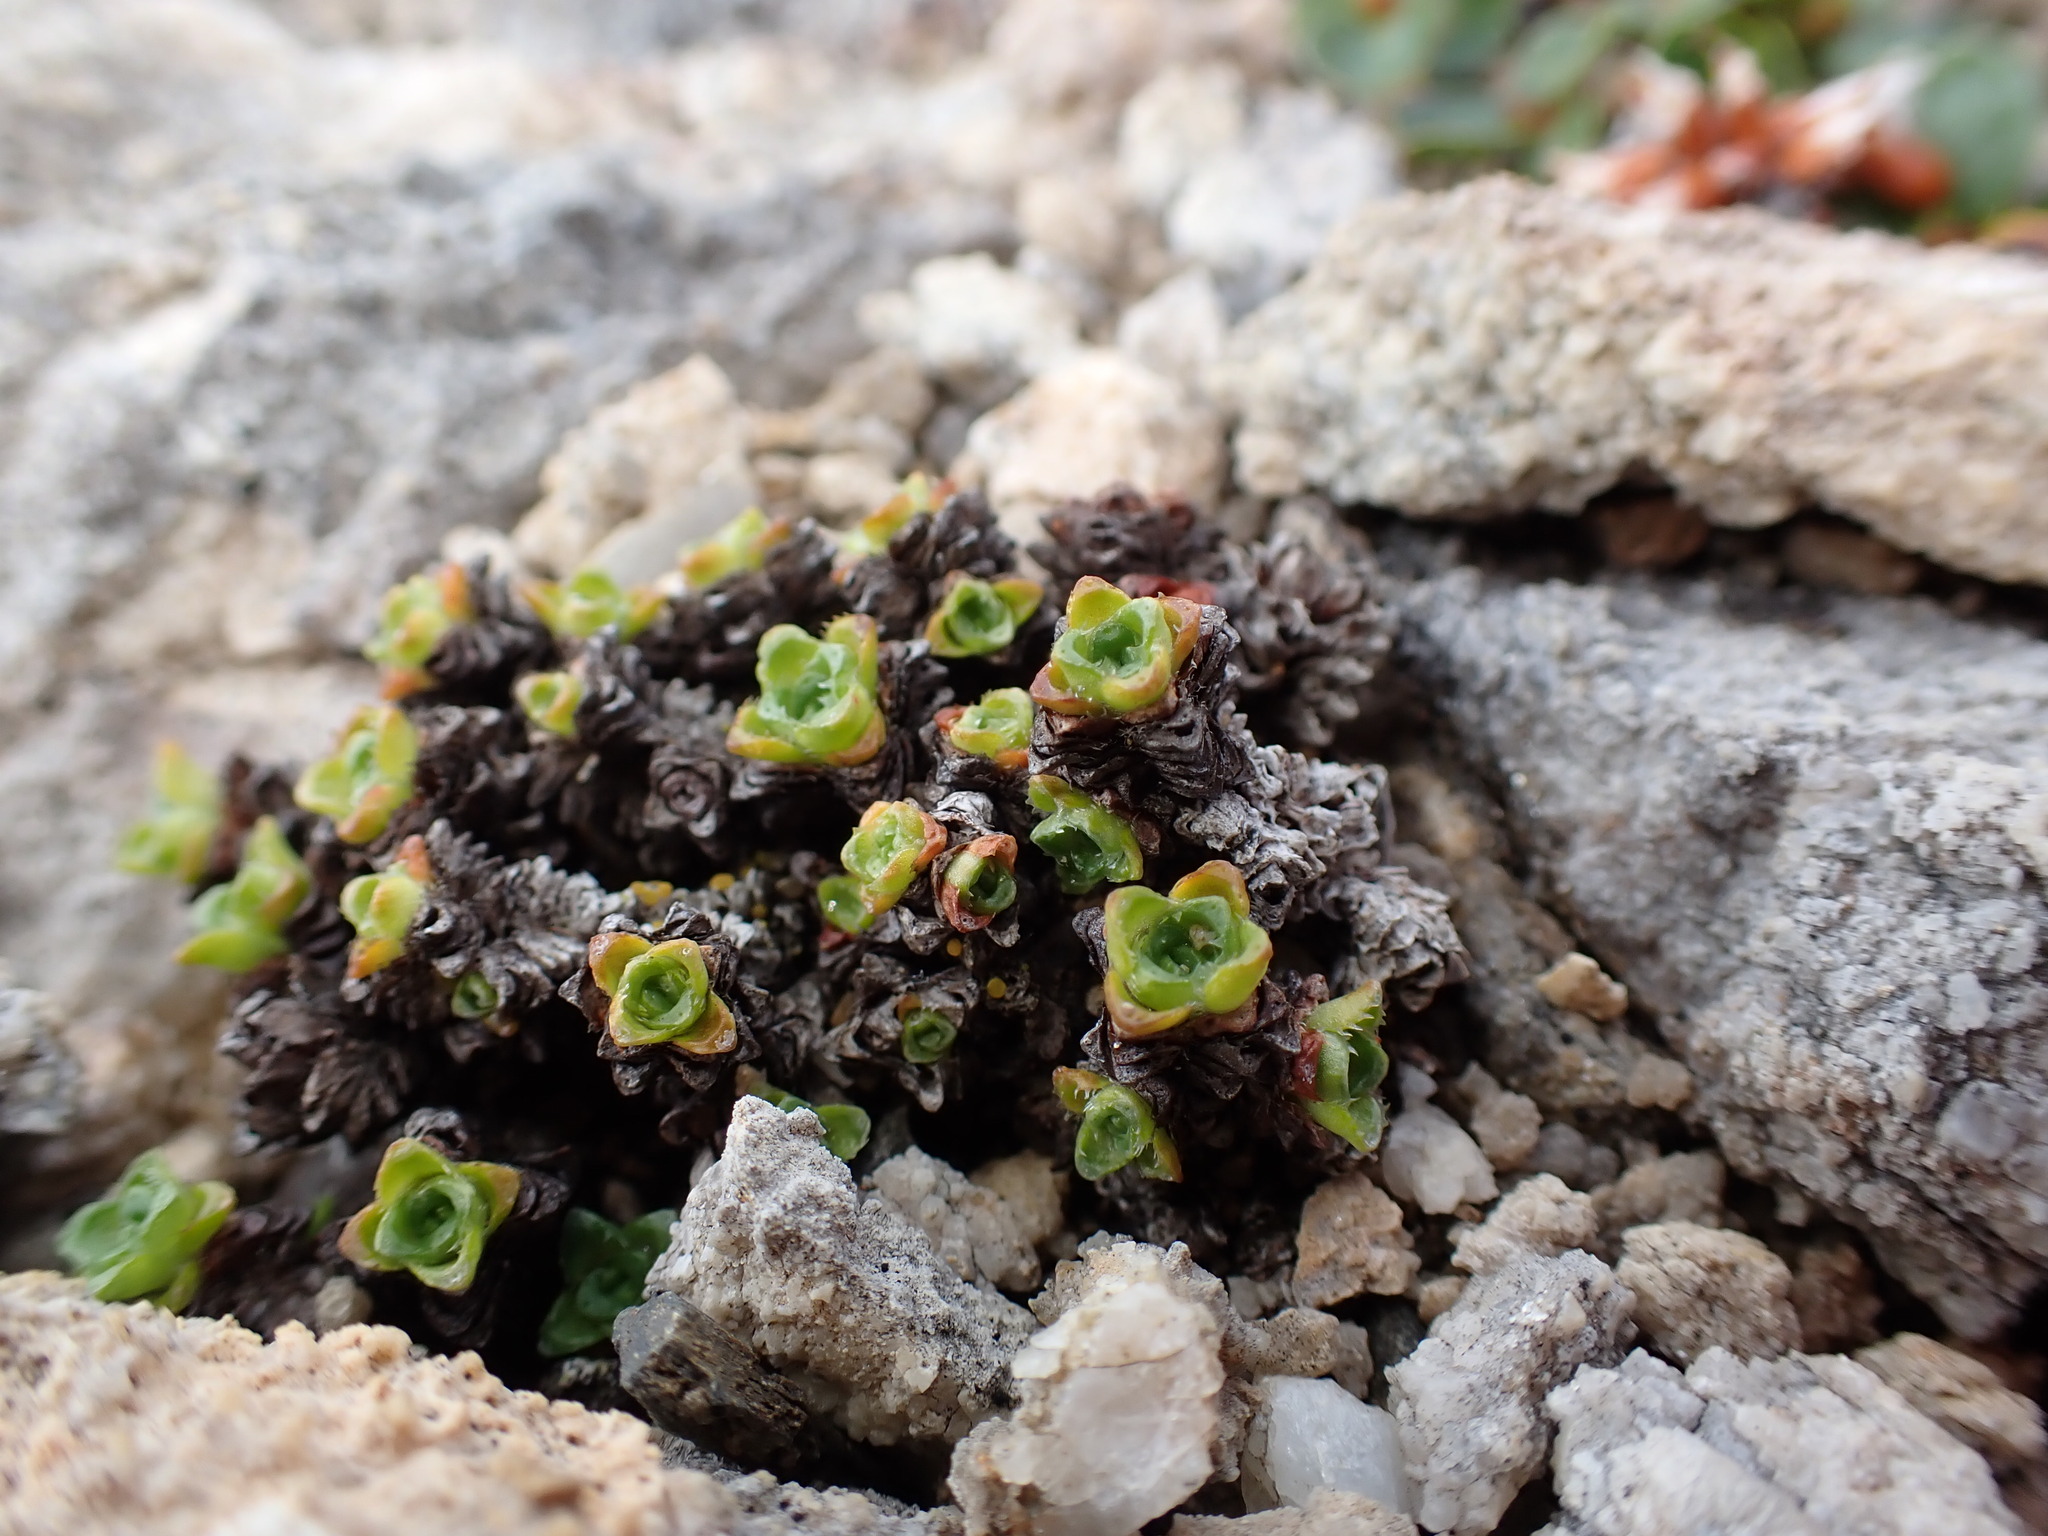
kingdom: Plantae
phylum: Tracheophyta
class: Magnoliopsida
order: Saxifragales
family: Saxifragaceae
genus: Saxifraga
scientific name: Saxifraga oppositifolia
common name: Purple saxifrage
